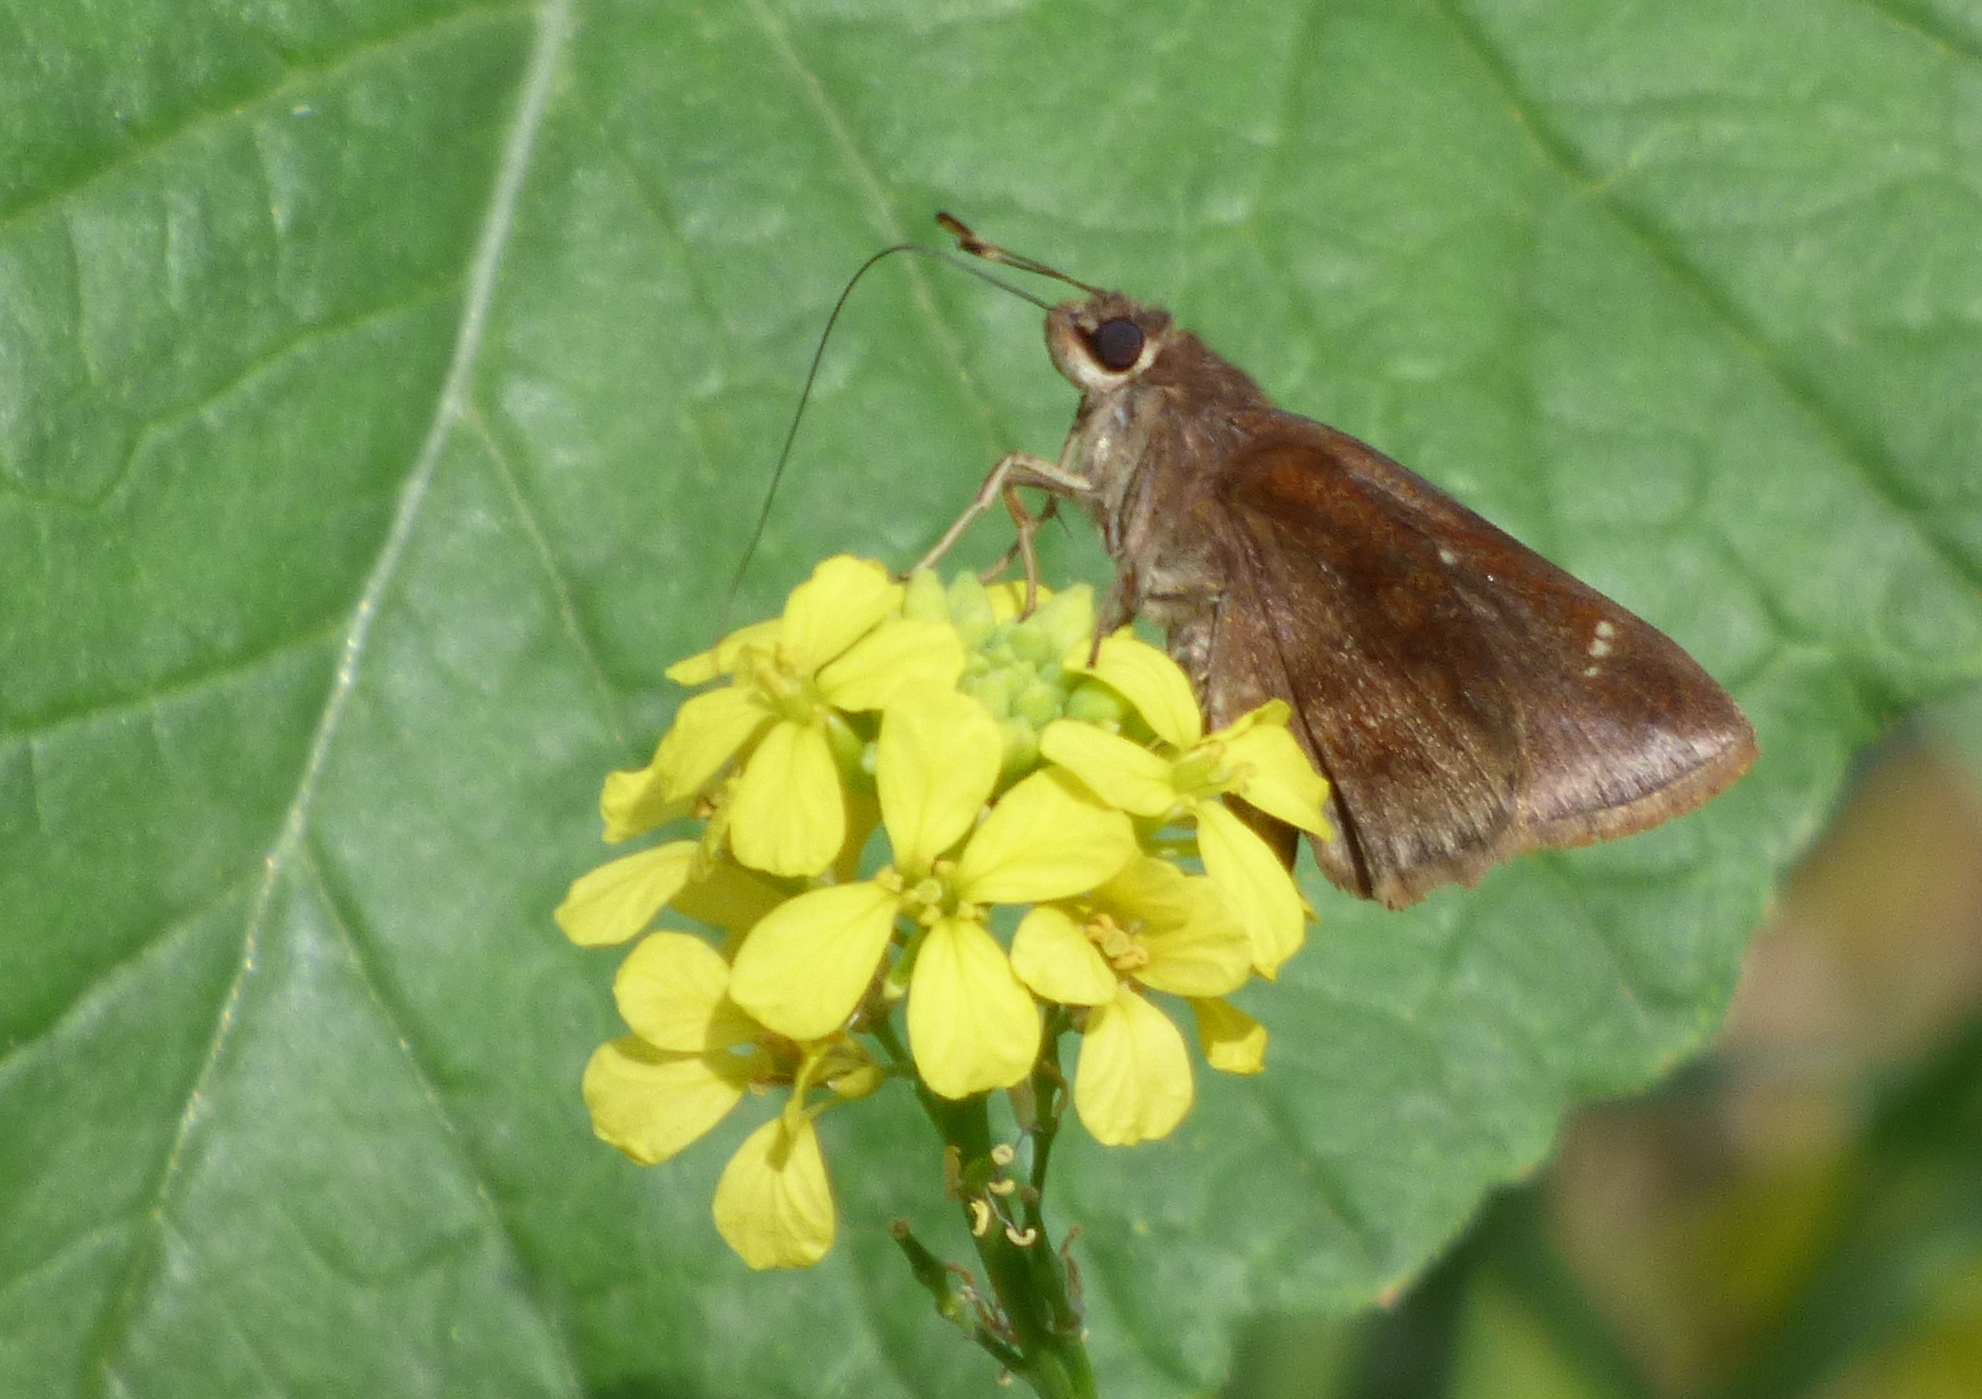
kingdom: Animalia
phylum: Arthropoda
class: Insecta
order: Lepidoptera
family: Hesperiidae
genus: Quinta
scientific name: Quinta cannae
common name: Canna skipper
